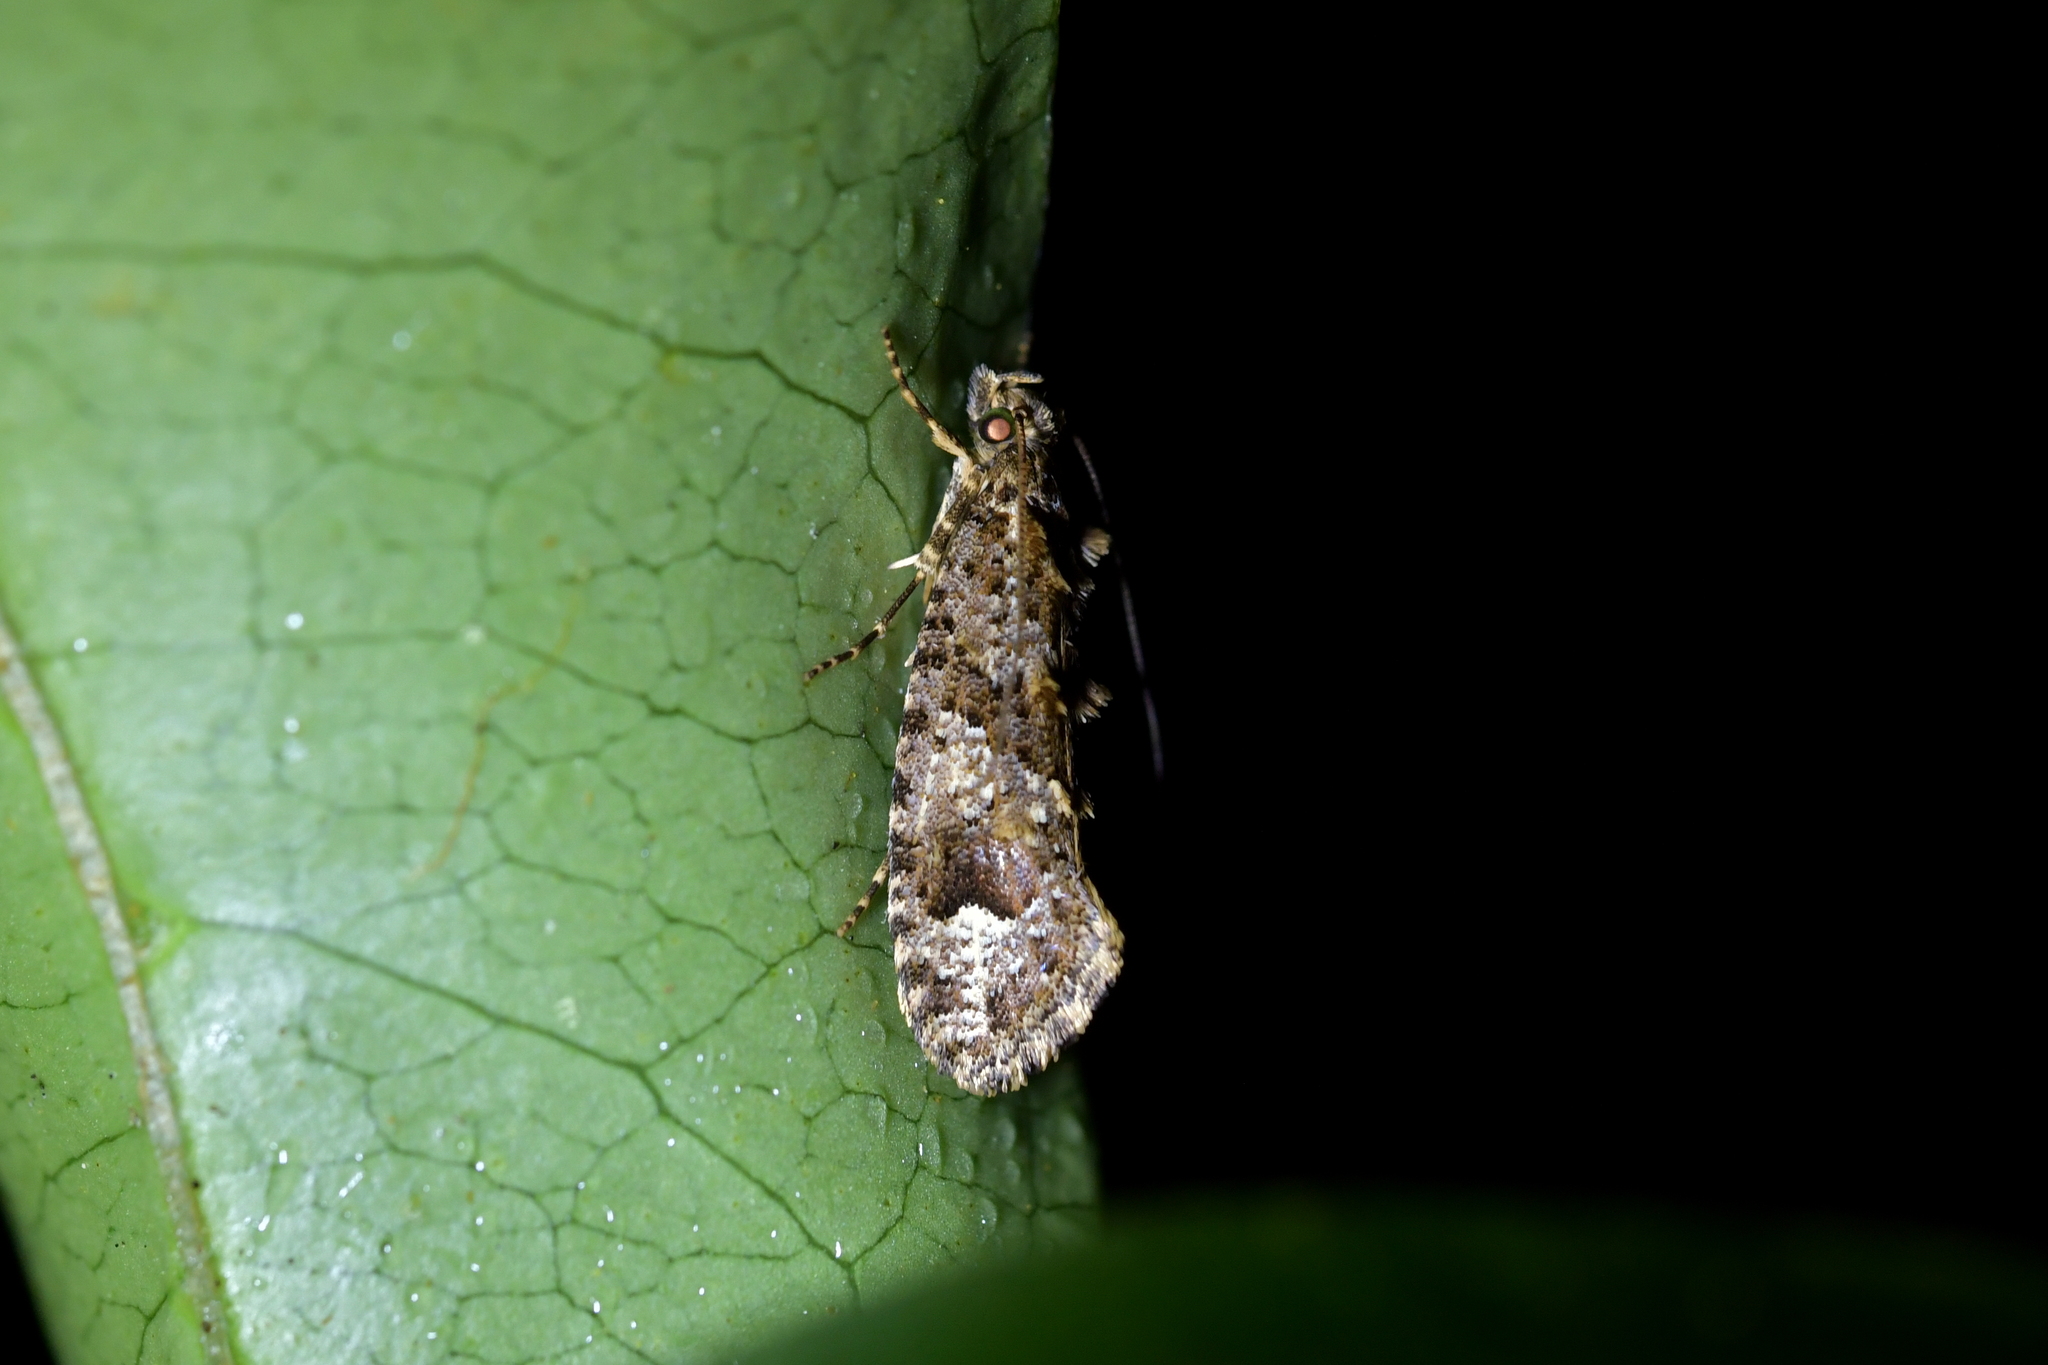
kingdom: Animalia
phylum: Arthropoda
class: Insecta
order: Lepidoptera
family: Tineidae
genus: Lysiphragma
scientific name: Lysiphragma epixyla
